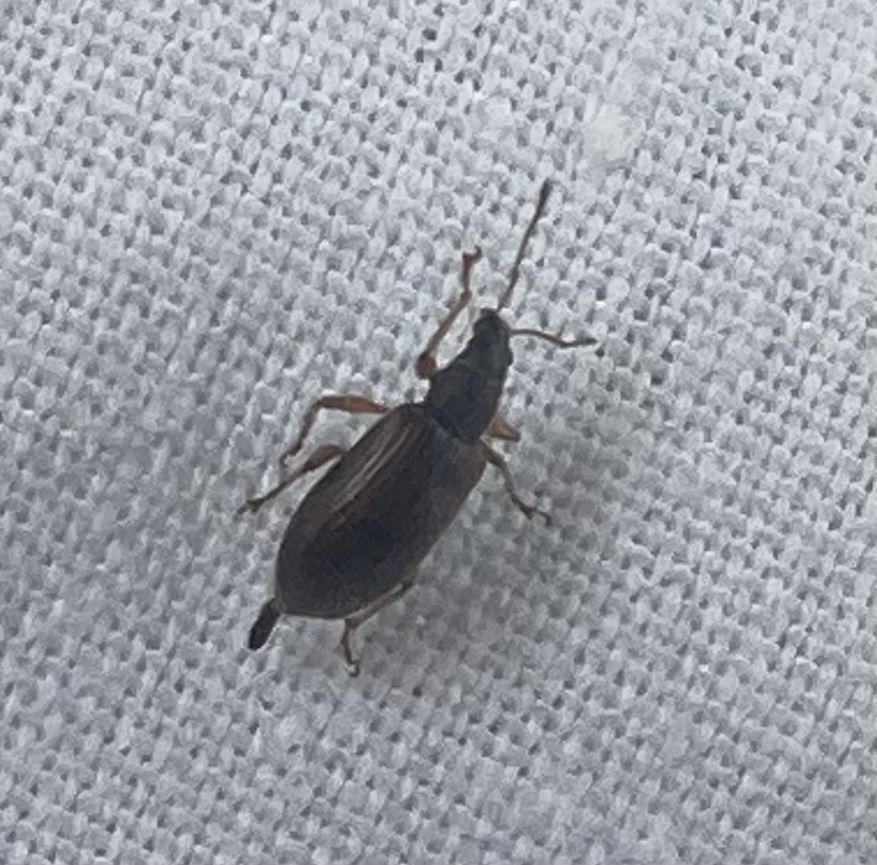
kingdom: Animalia
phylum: Arthropoda
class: Insecta
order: Coleoptera
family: Curculionidae
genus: Phyllobius
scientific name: Phyllobius oblongus
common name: Brown leaf weevil
